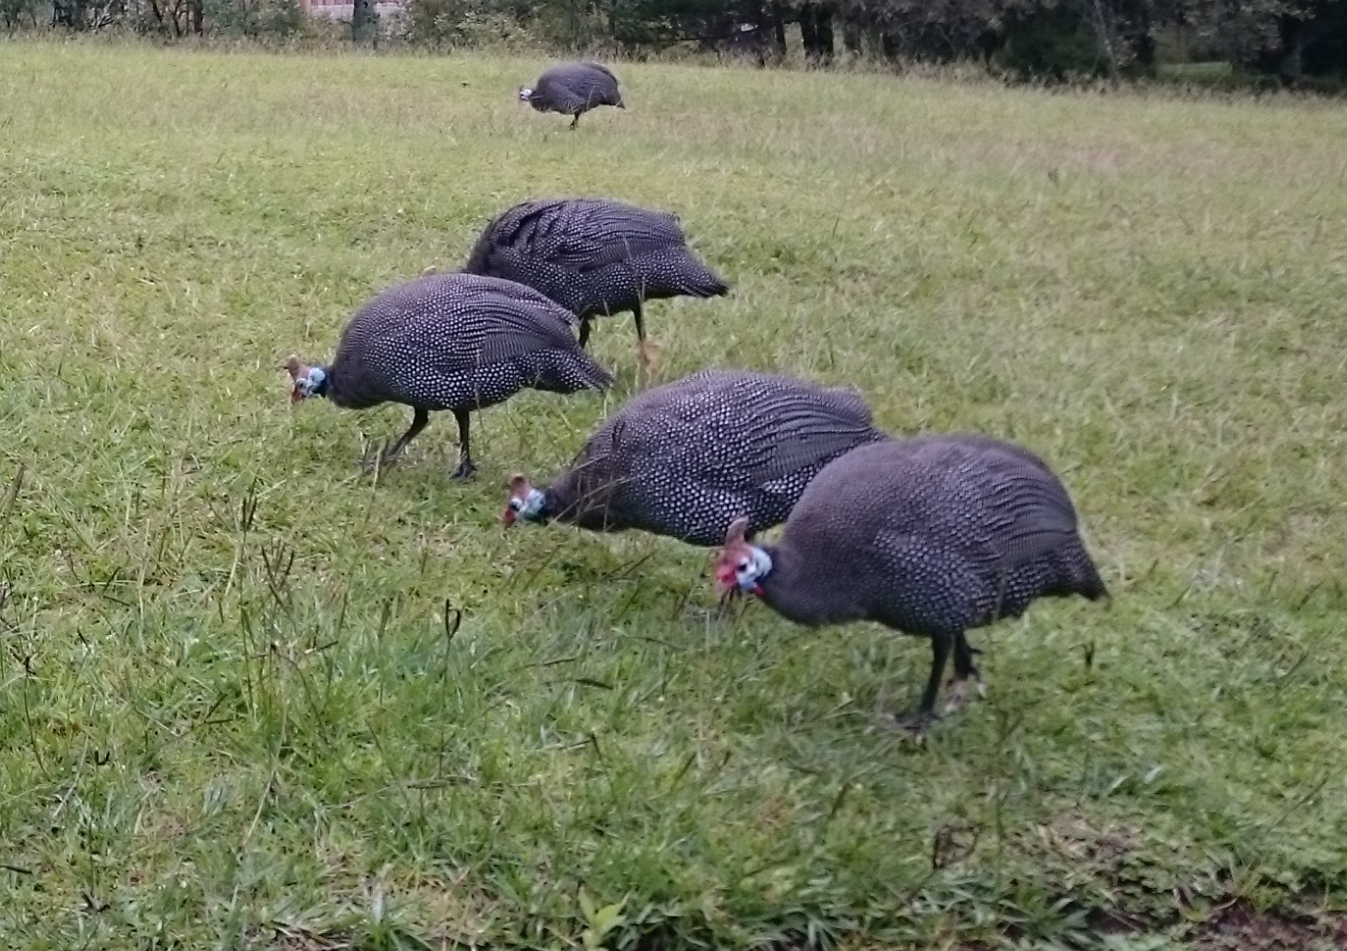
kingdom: Animalia
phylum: Chordata
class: Aves
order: Galliformes
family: Numididae
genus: Numida
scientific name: Numida meleagris
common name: Helmeted guineafowl
